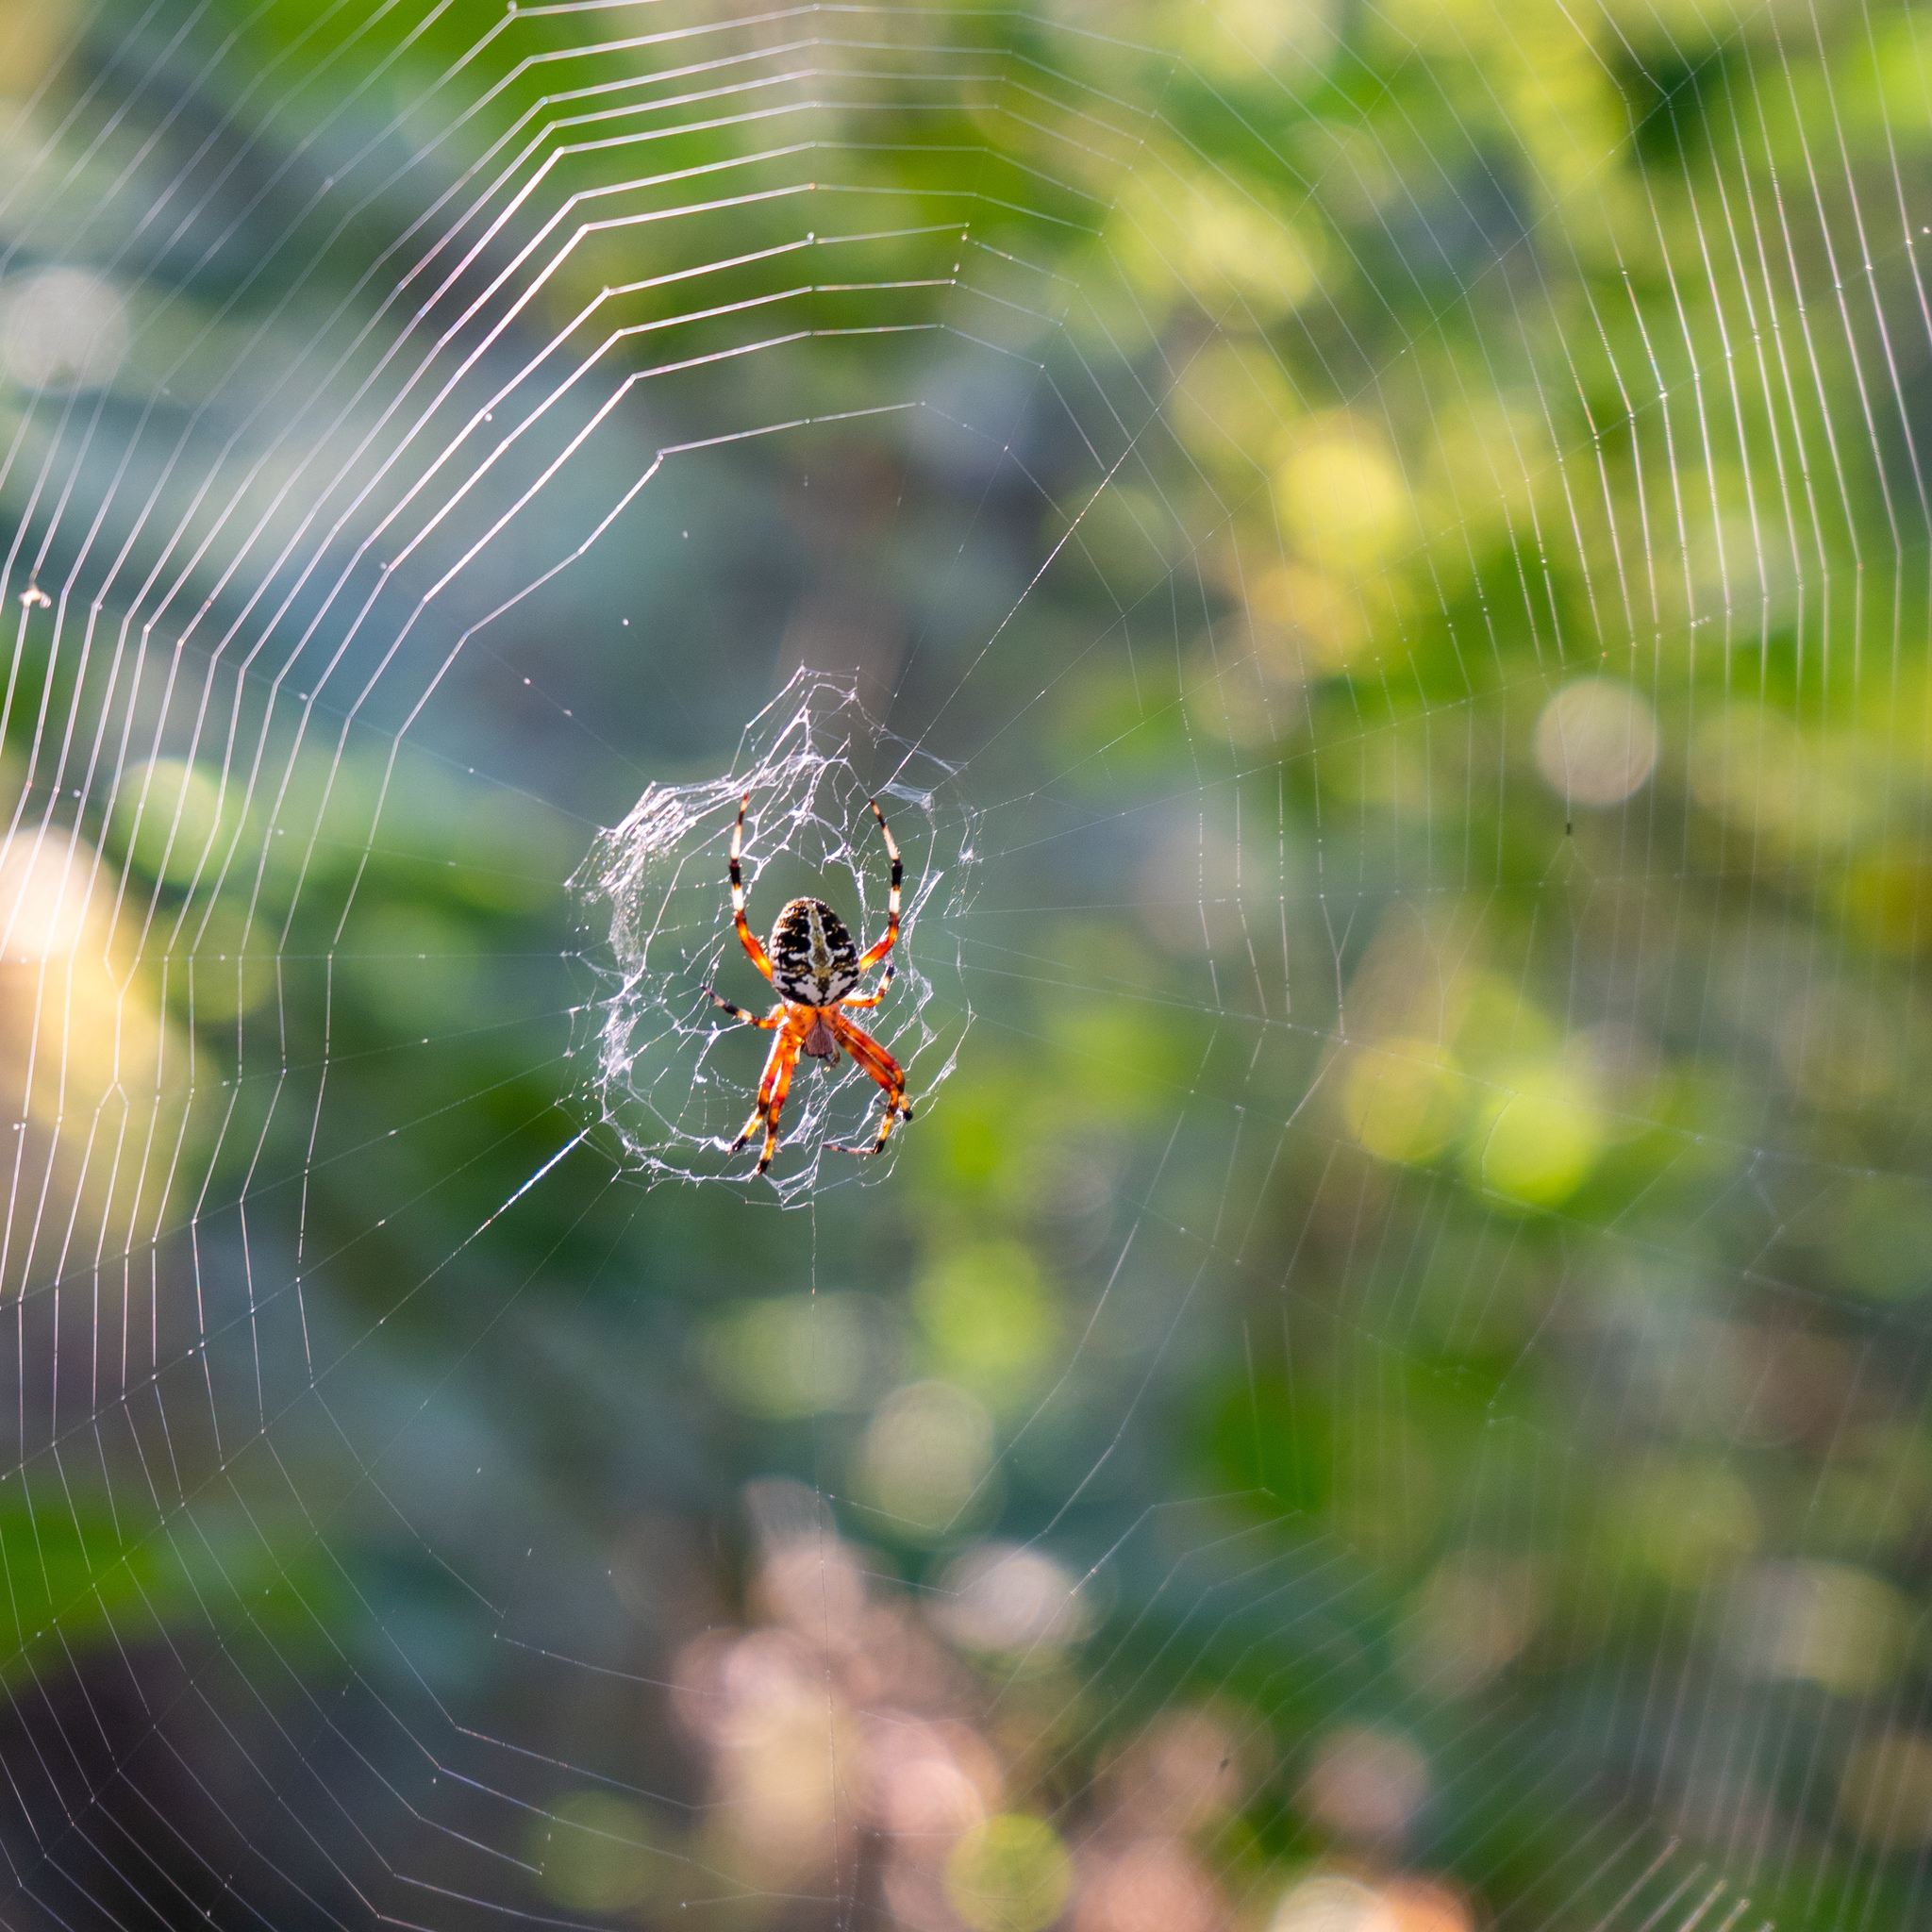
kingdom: Animalia
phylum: Arthropoda
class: Arachnida
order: Araneae
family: Araneidae
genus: Neoscona
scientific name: Neoscona domiciliorum
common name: Red-femured spotted orbweaver
